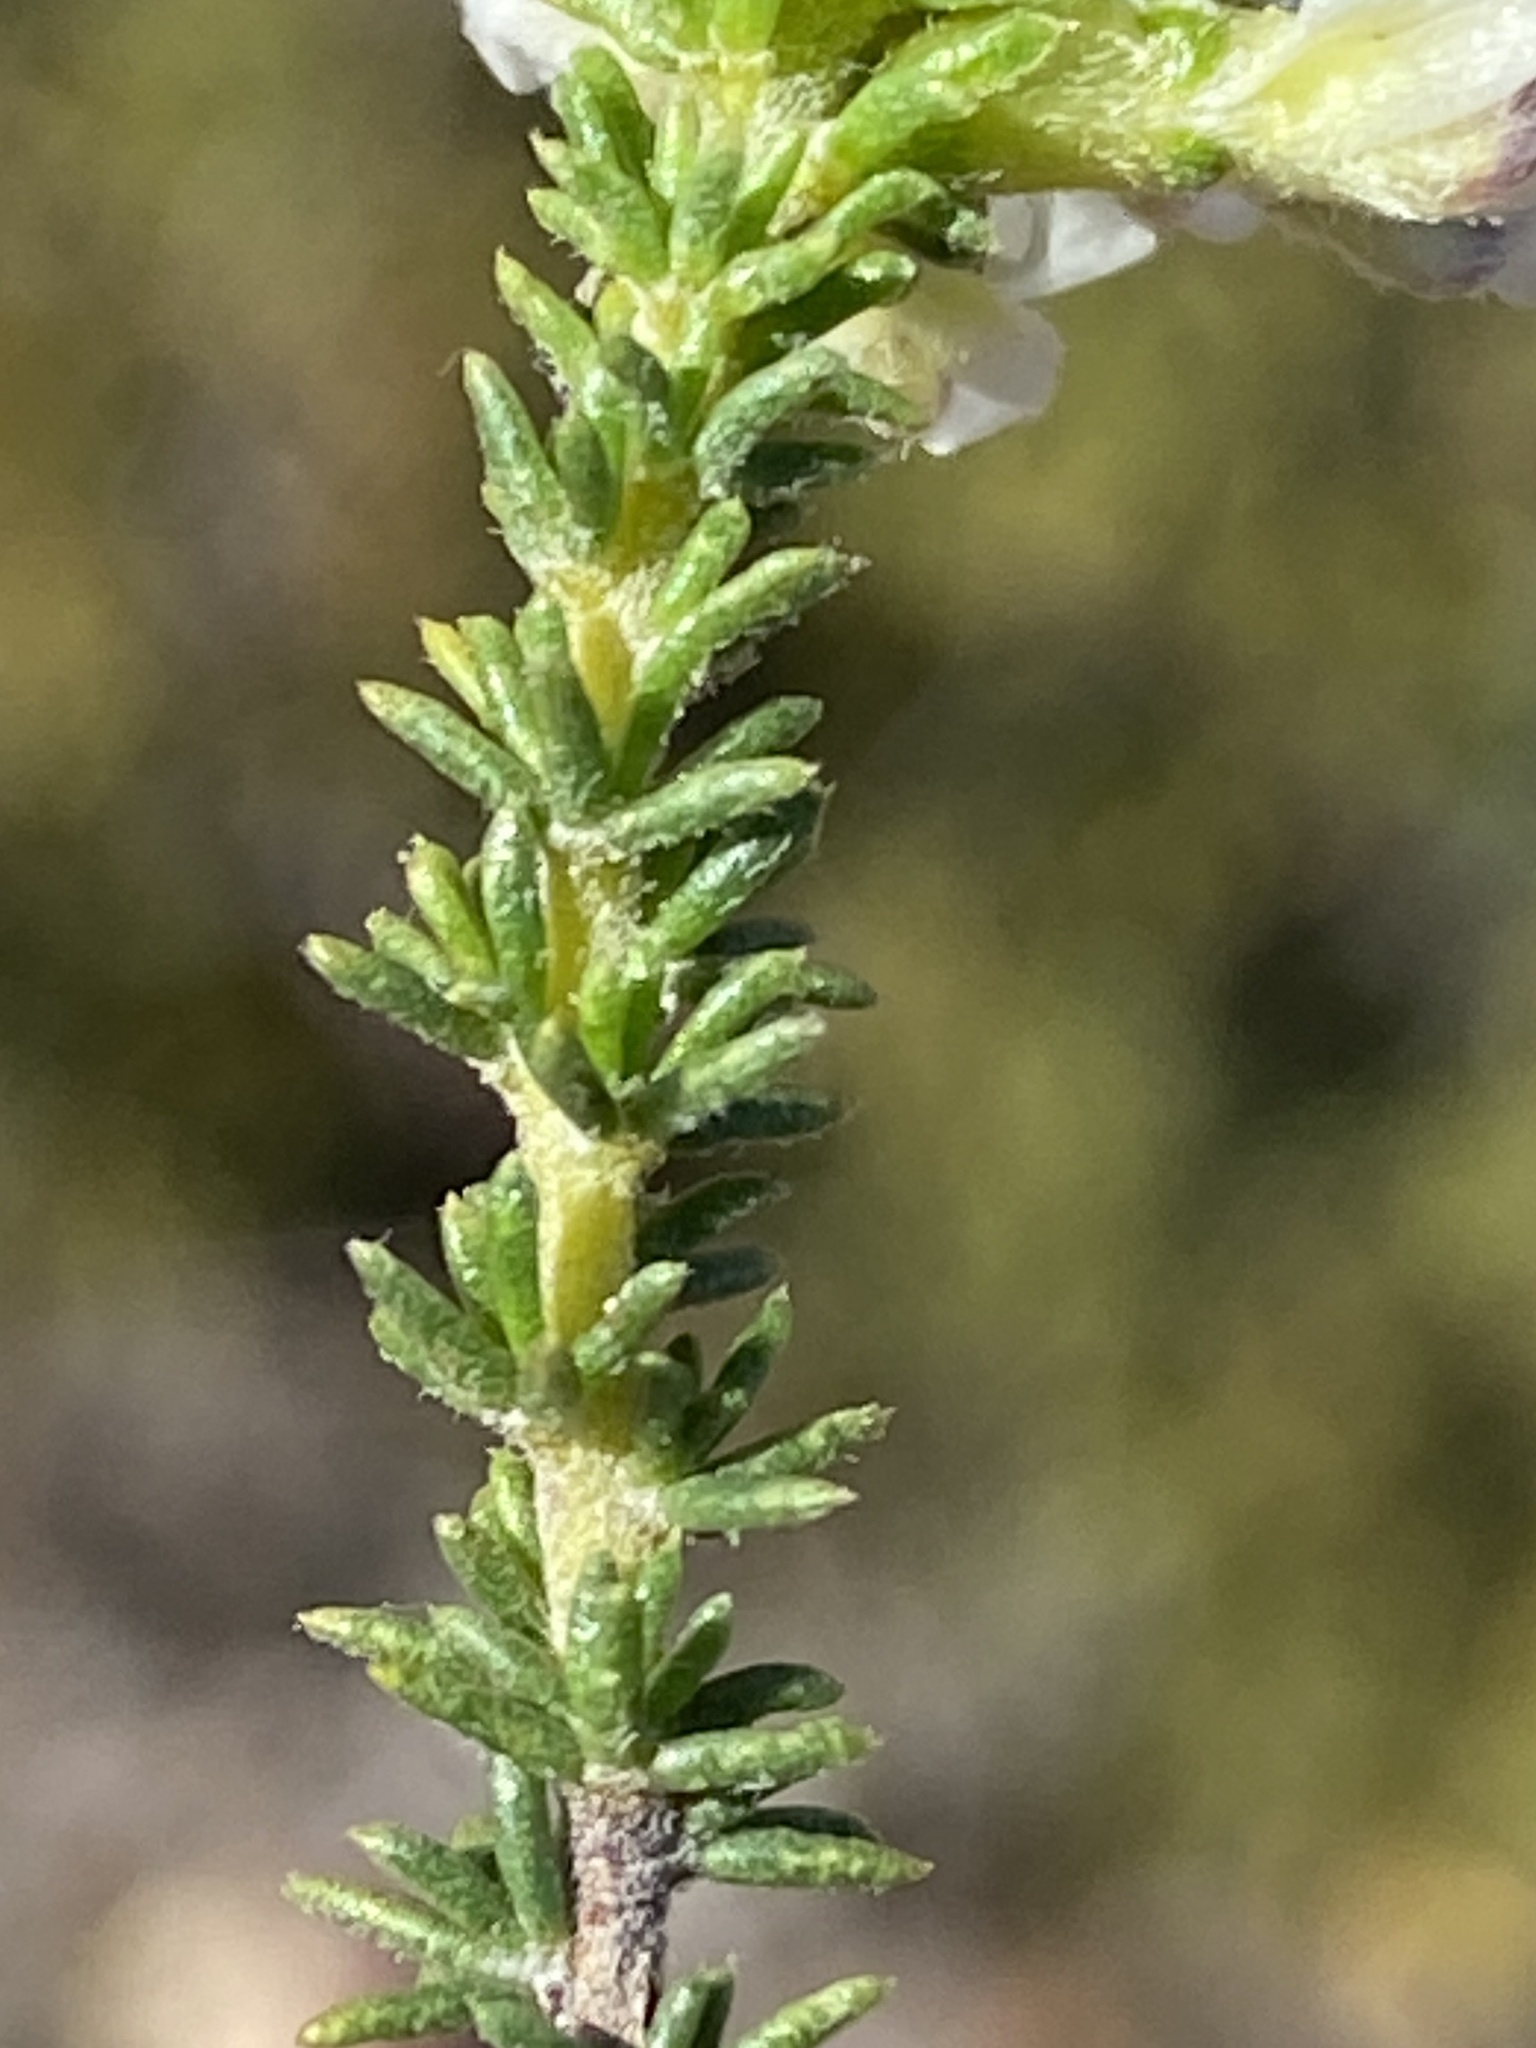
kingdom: Plantae
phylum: Tracheophyta
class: Magnoliopsida
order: Fabales
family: Fabaceae
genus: Aspalathus
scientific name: Aspalathus nigra
